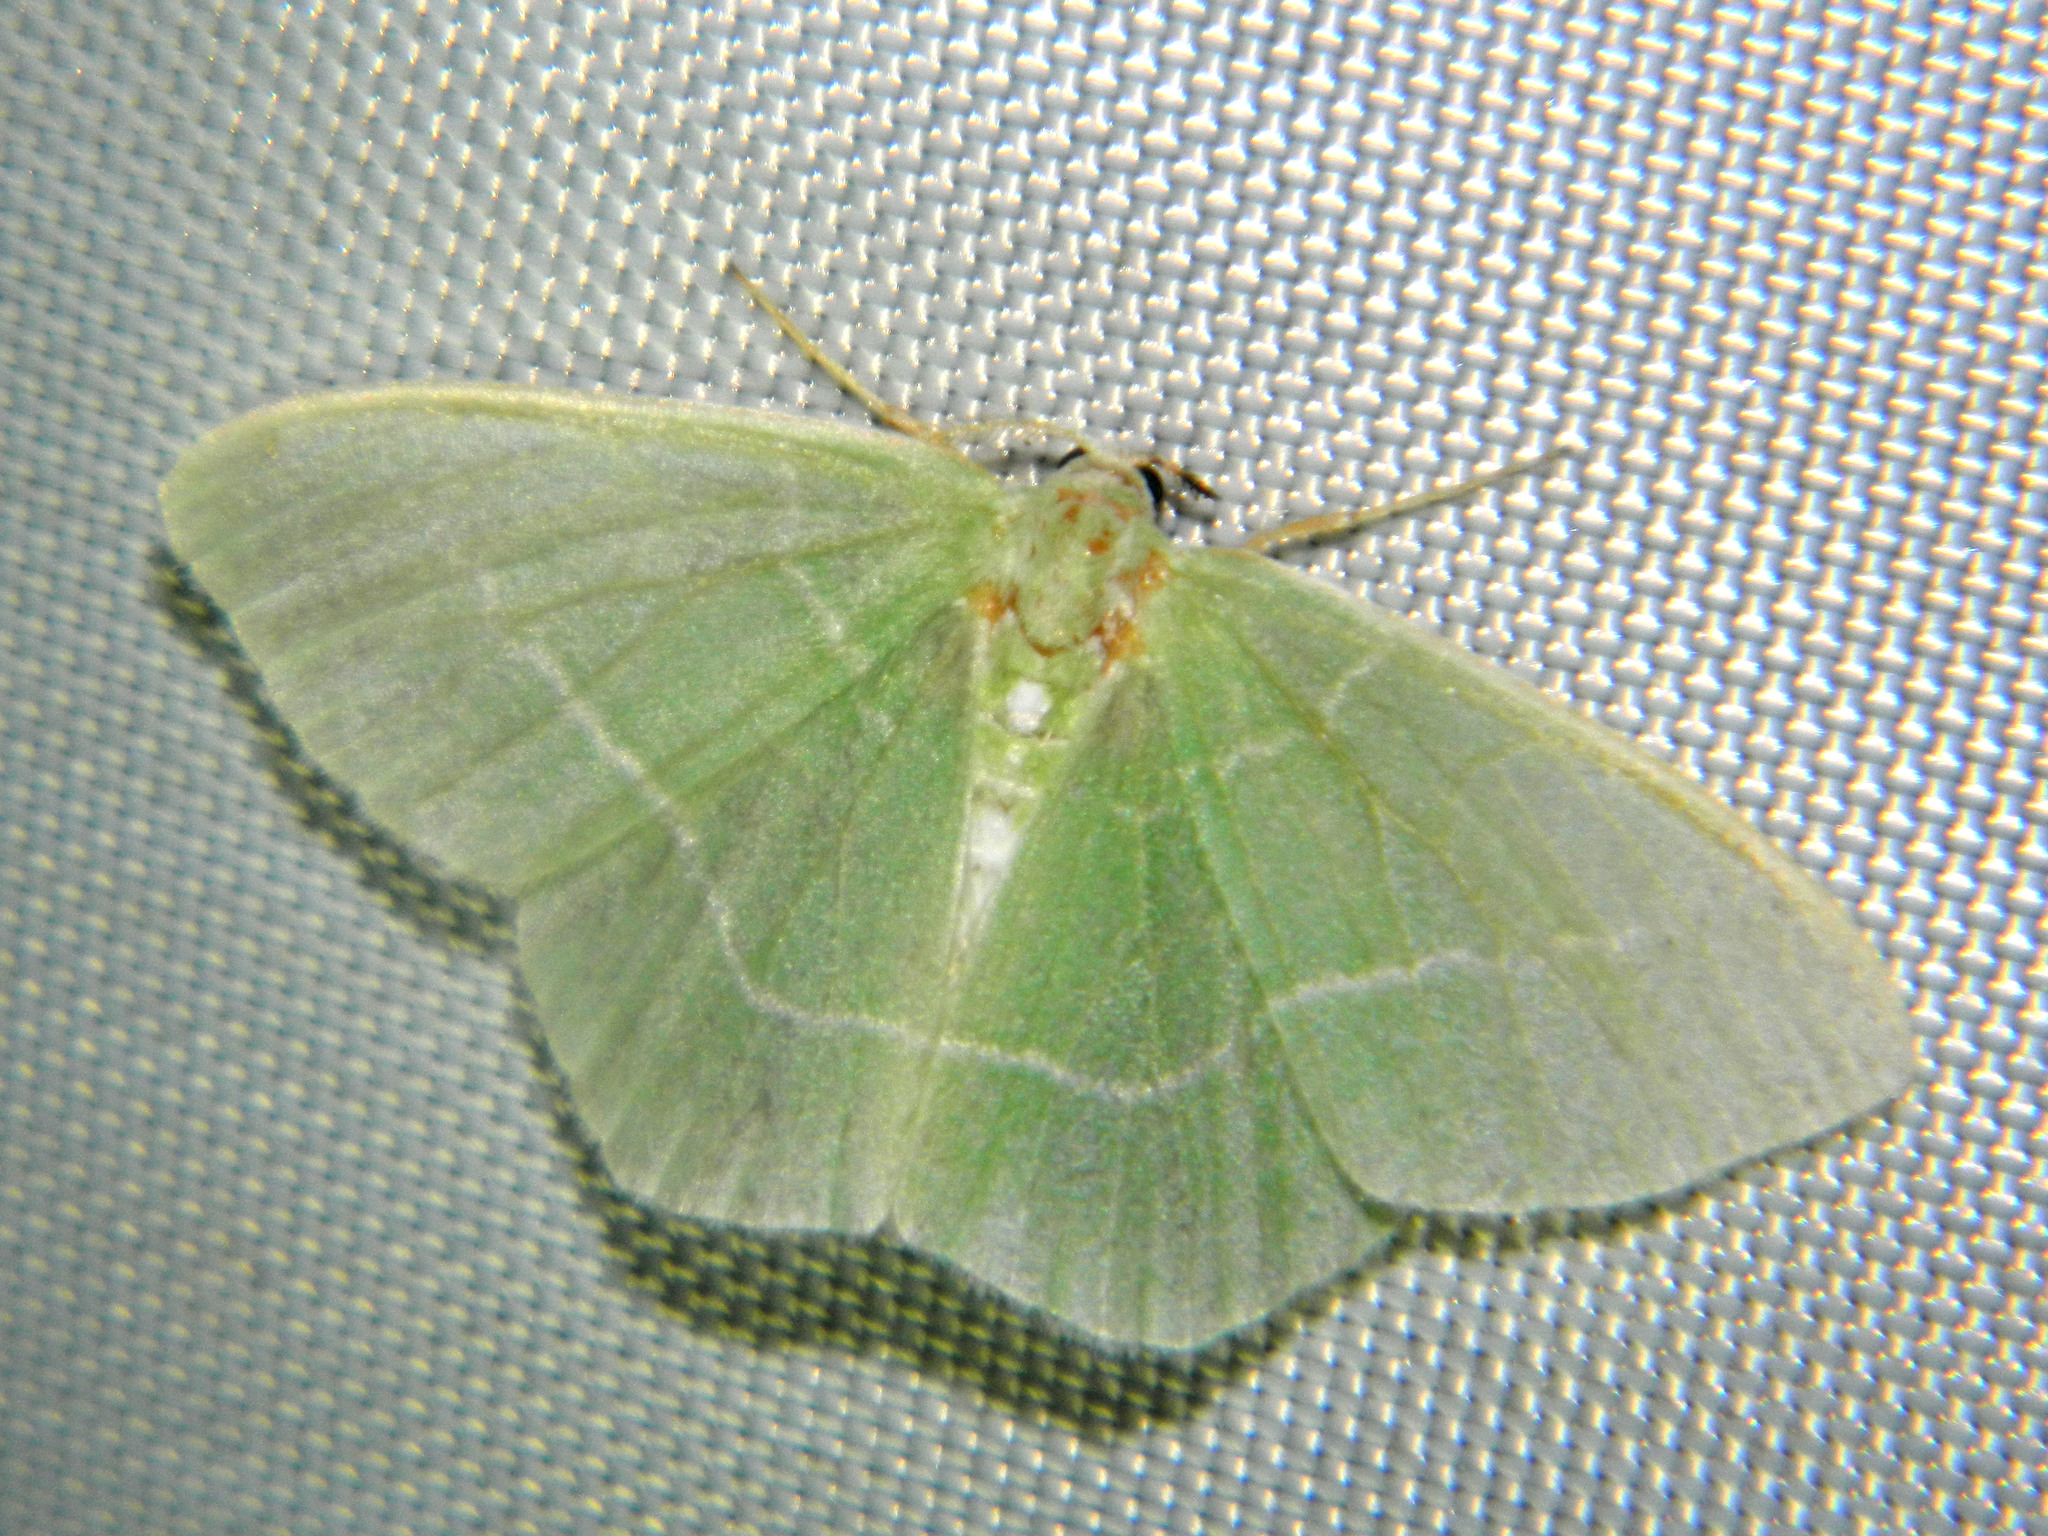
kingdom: Animalia
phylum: Arthropoda
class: Insecta
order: Lepidoptera
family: Geometridae
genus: Nemoria
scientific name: Nemoria mimosaria
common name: White-fringed emerald
